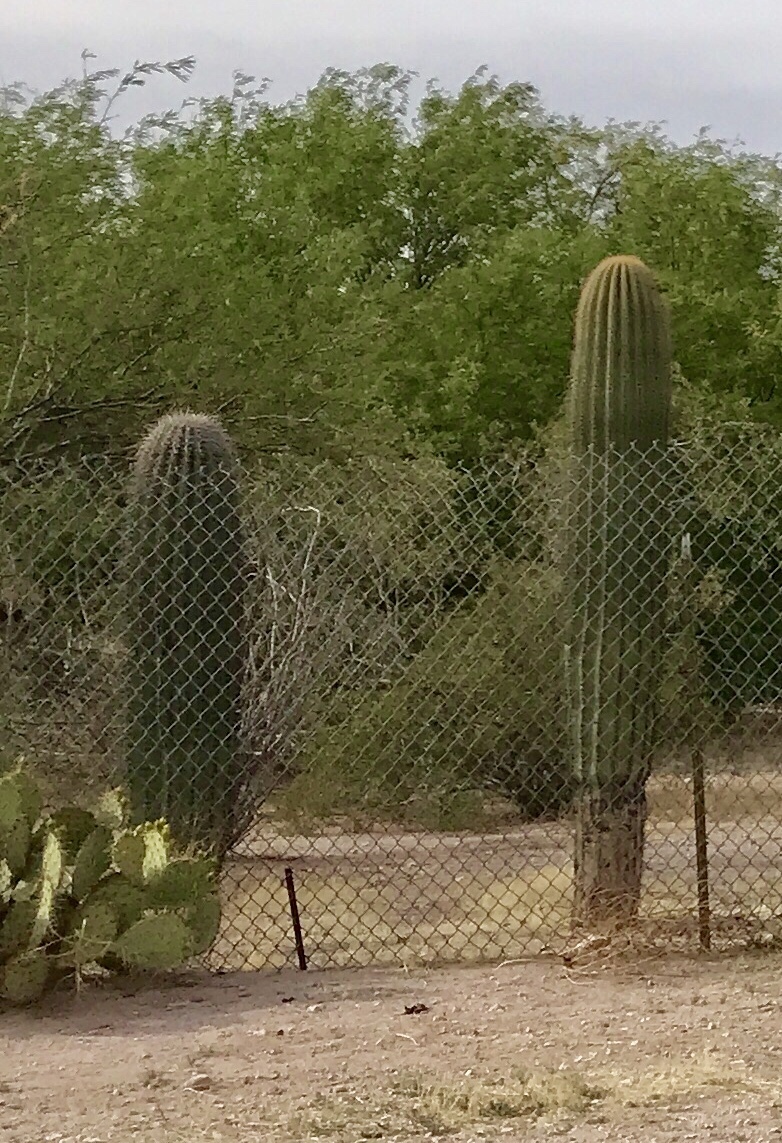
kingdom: Plantae
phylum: Tracheophyta
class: Magnoliopsida
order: Caryophyllales
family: Cactaceae
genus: Carnegiea
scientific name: Carnegiea gigantea
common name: Saguaro
